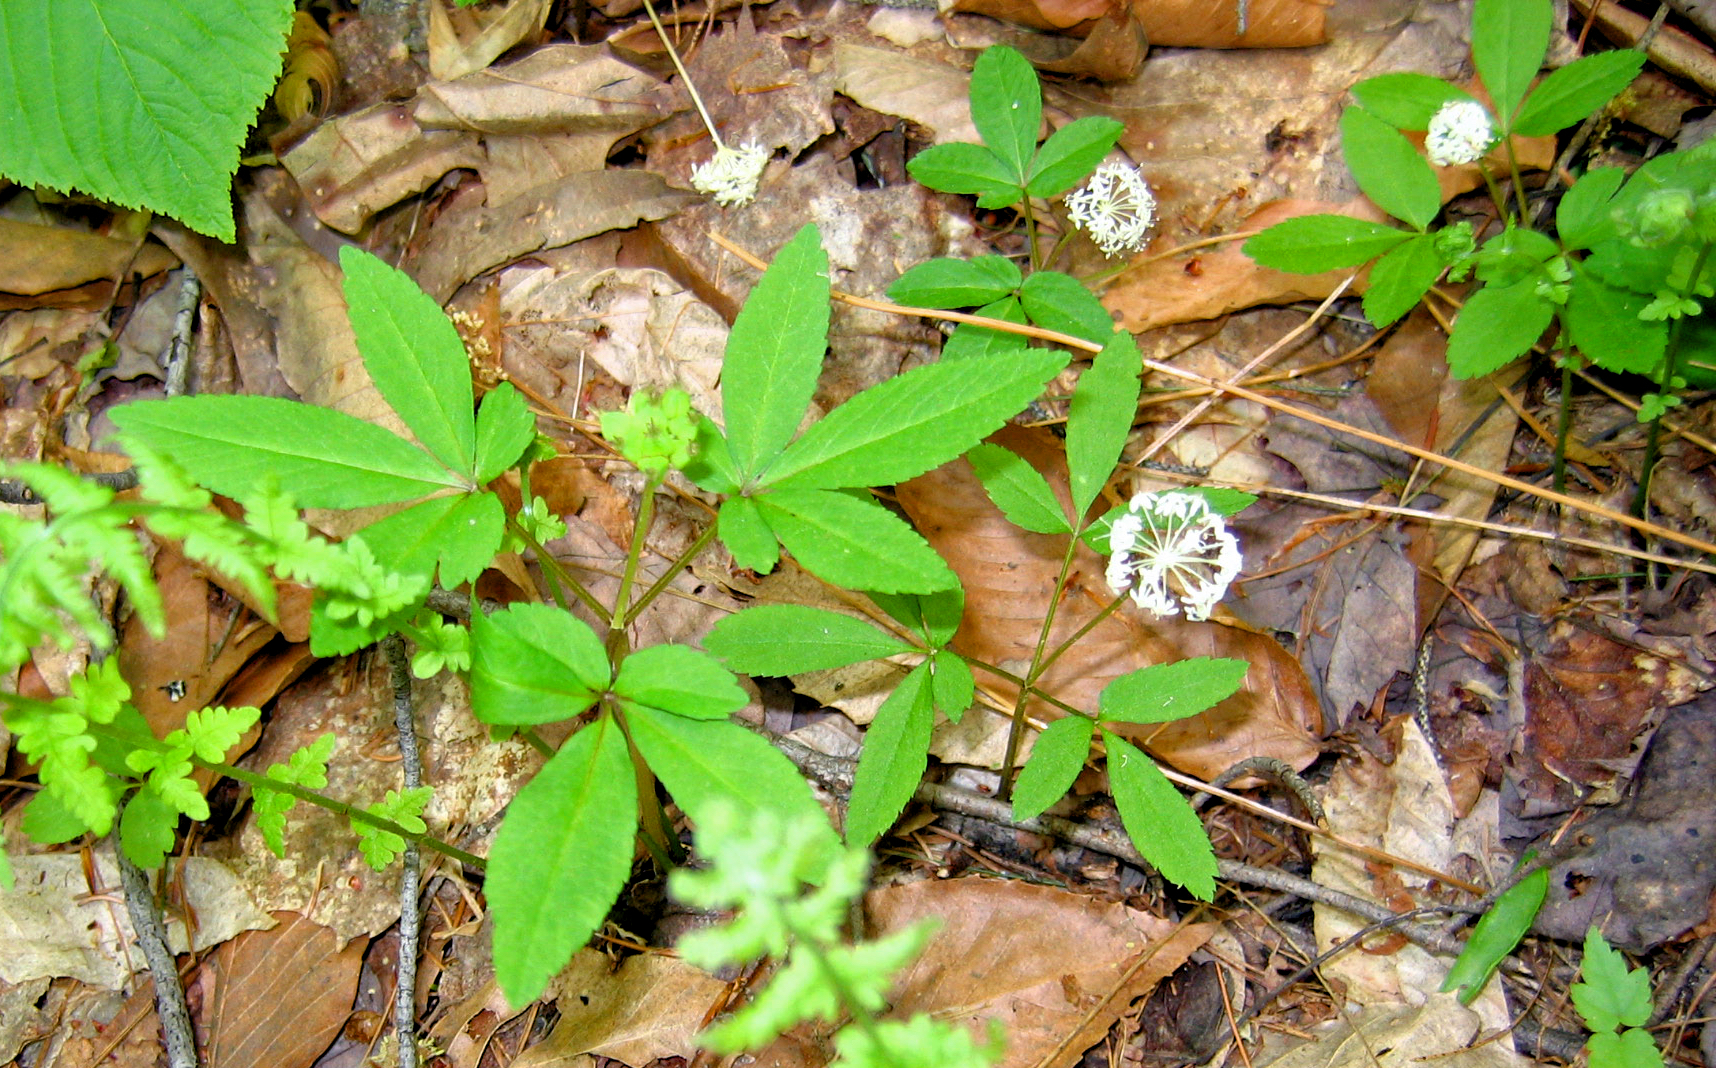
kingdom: Plantae
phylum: Tracheophyta
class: Magnoliopsida
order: Apiales
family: Araliaceae
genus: Panax
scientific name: Panax trifolius
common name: Dwarf ginseng
